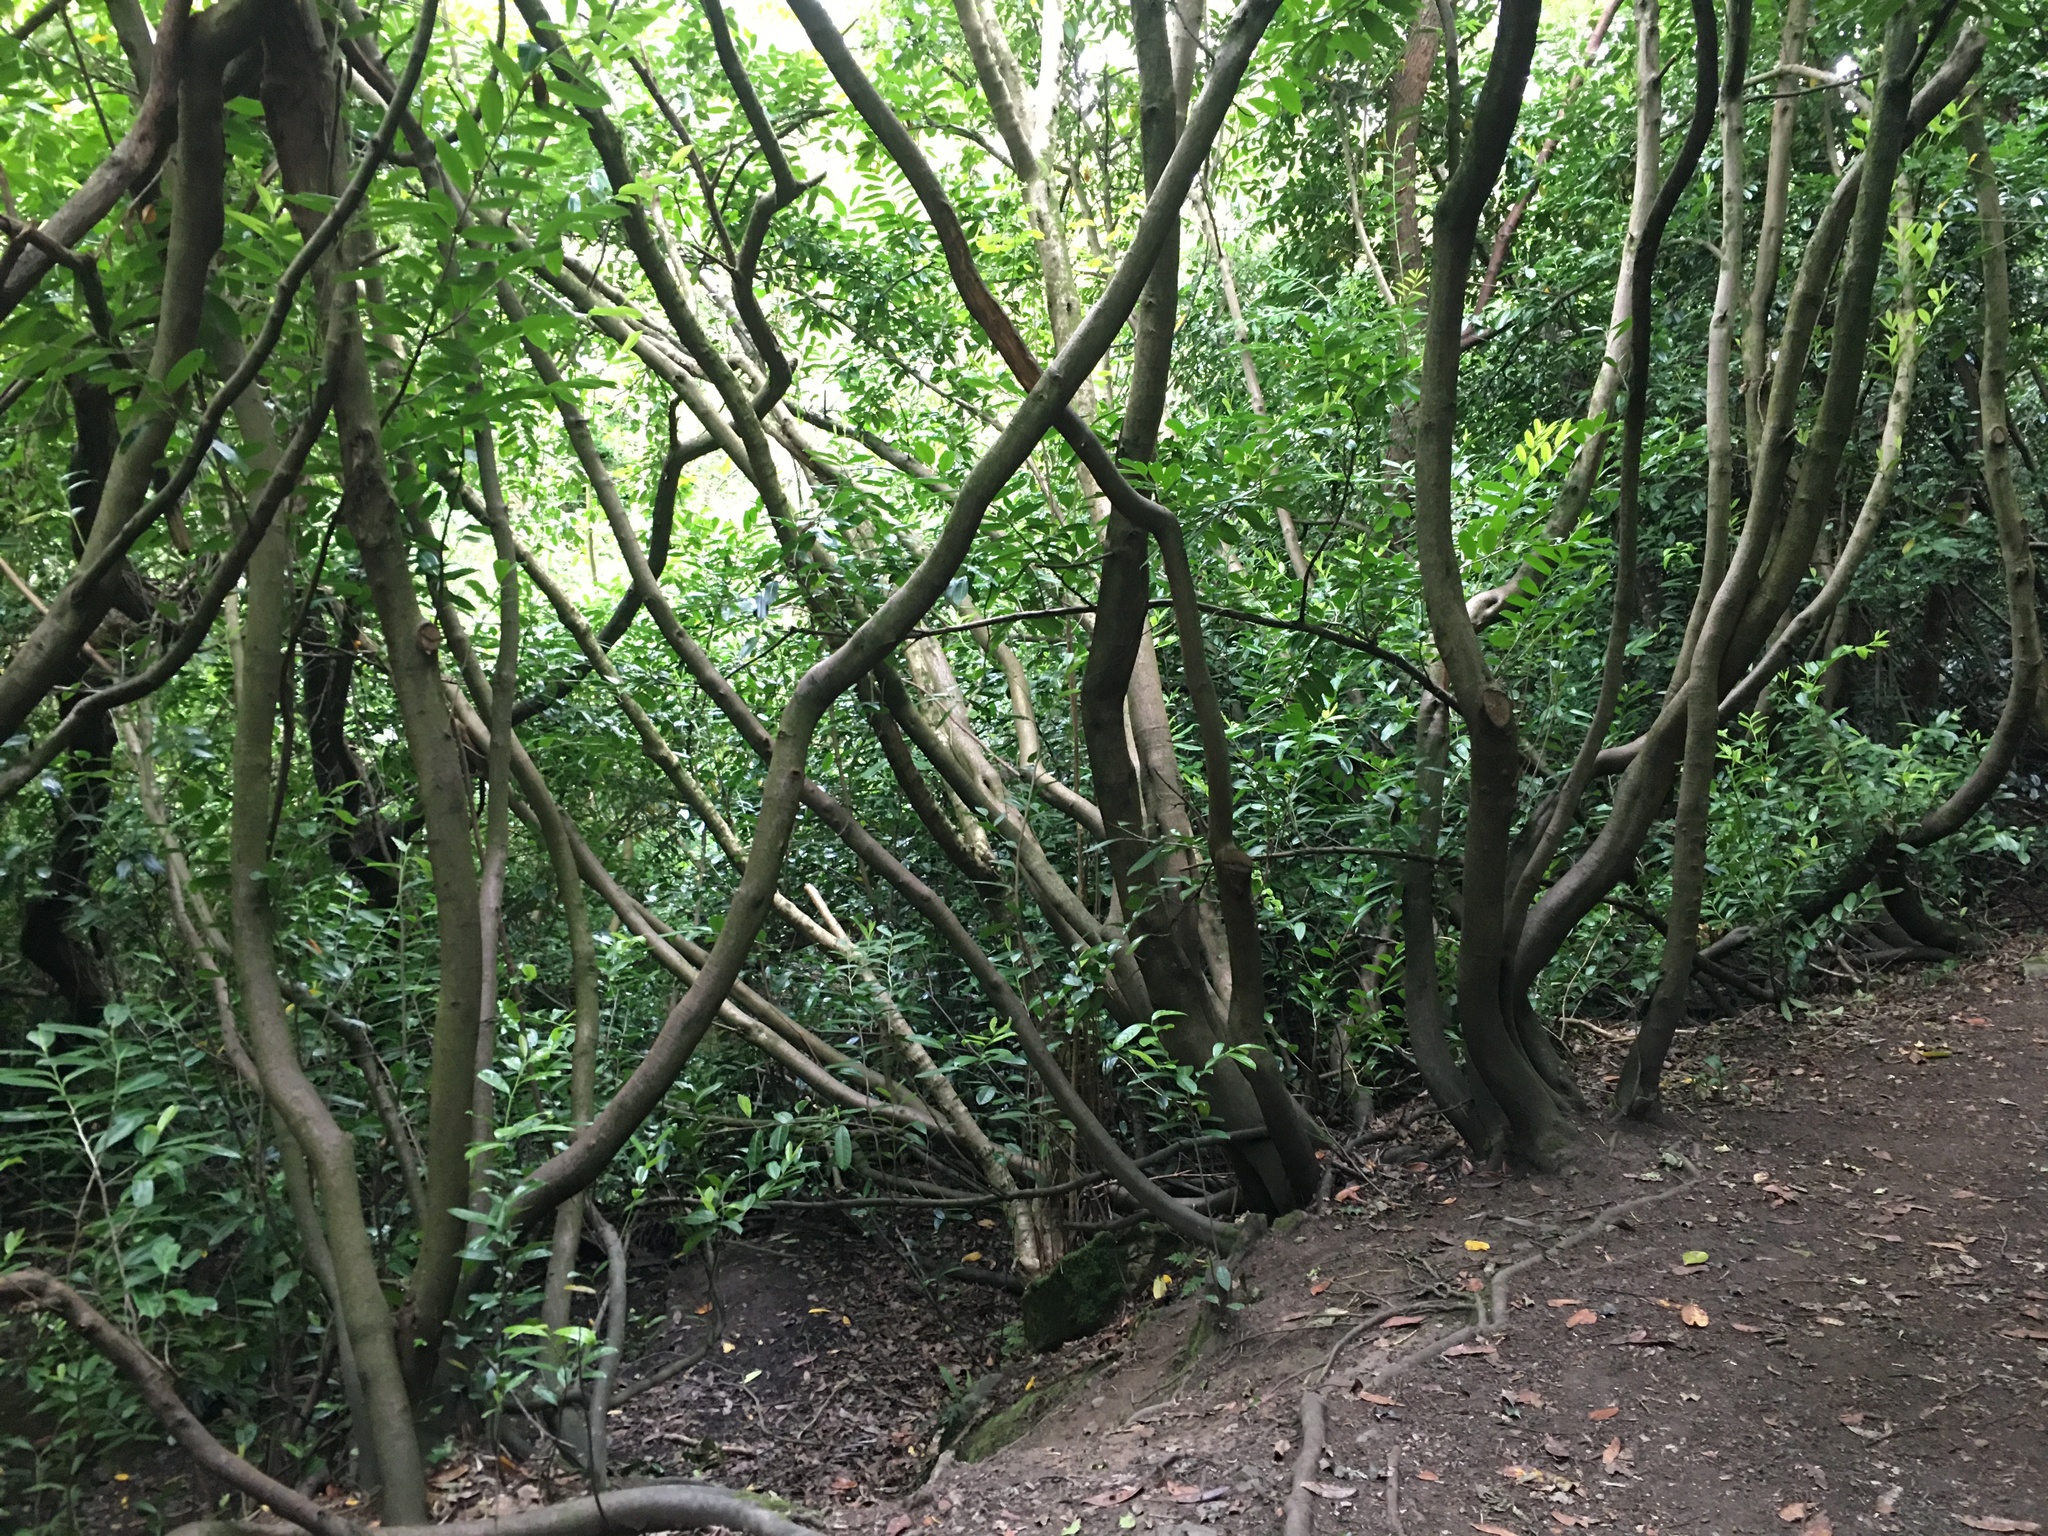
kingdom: Plantae
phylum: Tracheophyta
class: Magnoliopsida
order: Rosales
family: Rosaceae
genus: Prunus
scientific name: Prunus laurocerasus
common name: Cherry laurel
